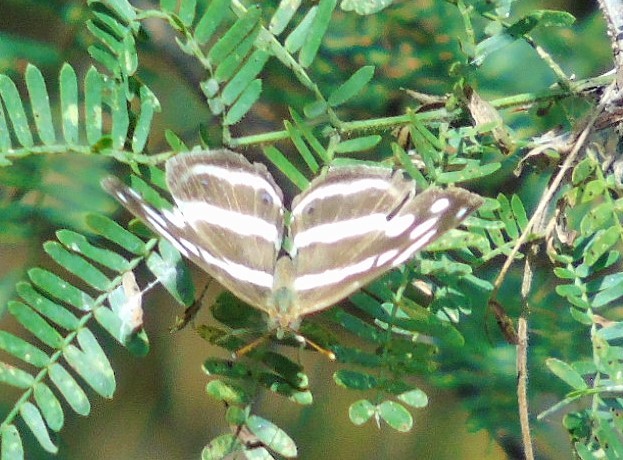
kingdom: Animalia
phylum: Arthropoda
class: Insecta
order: Lepidoptera
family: Nymphalidae
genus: Dynamine
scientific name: Dynamine mylitta
